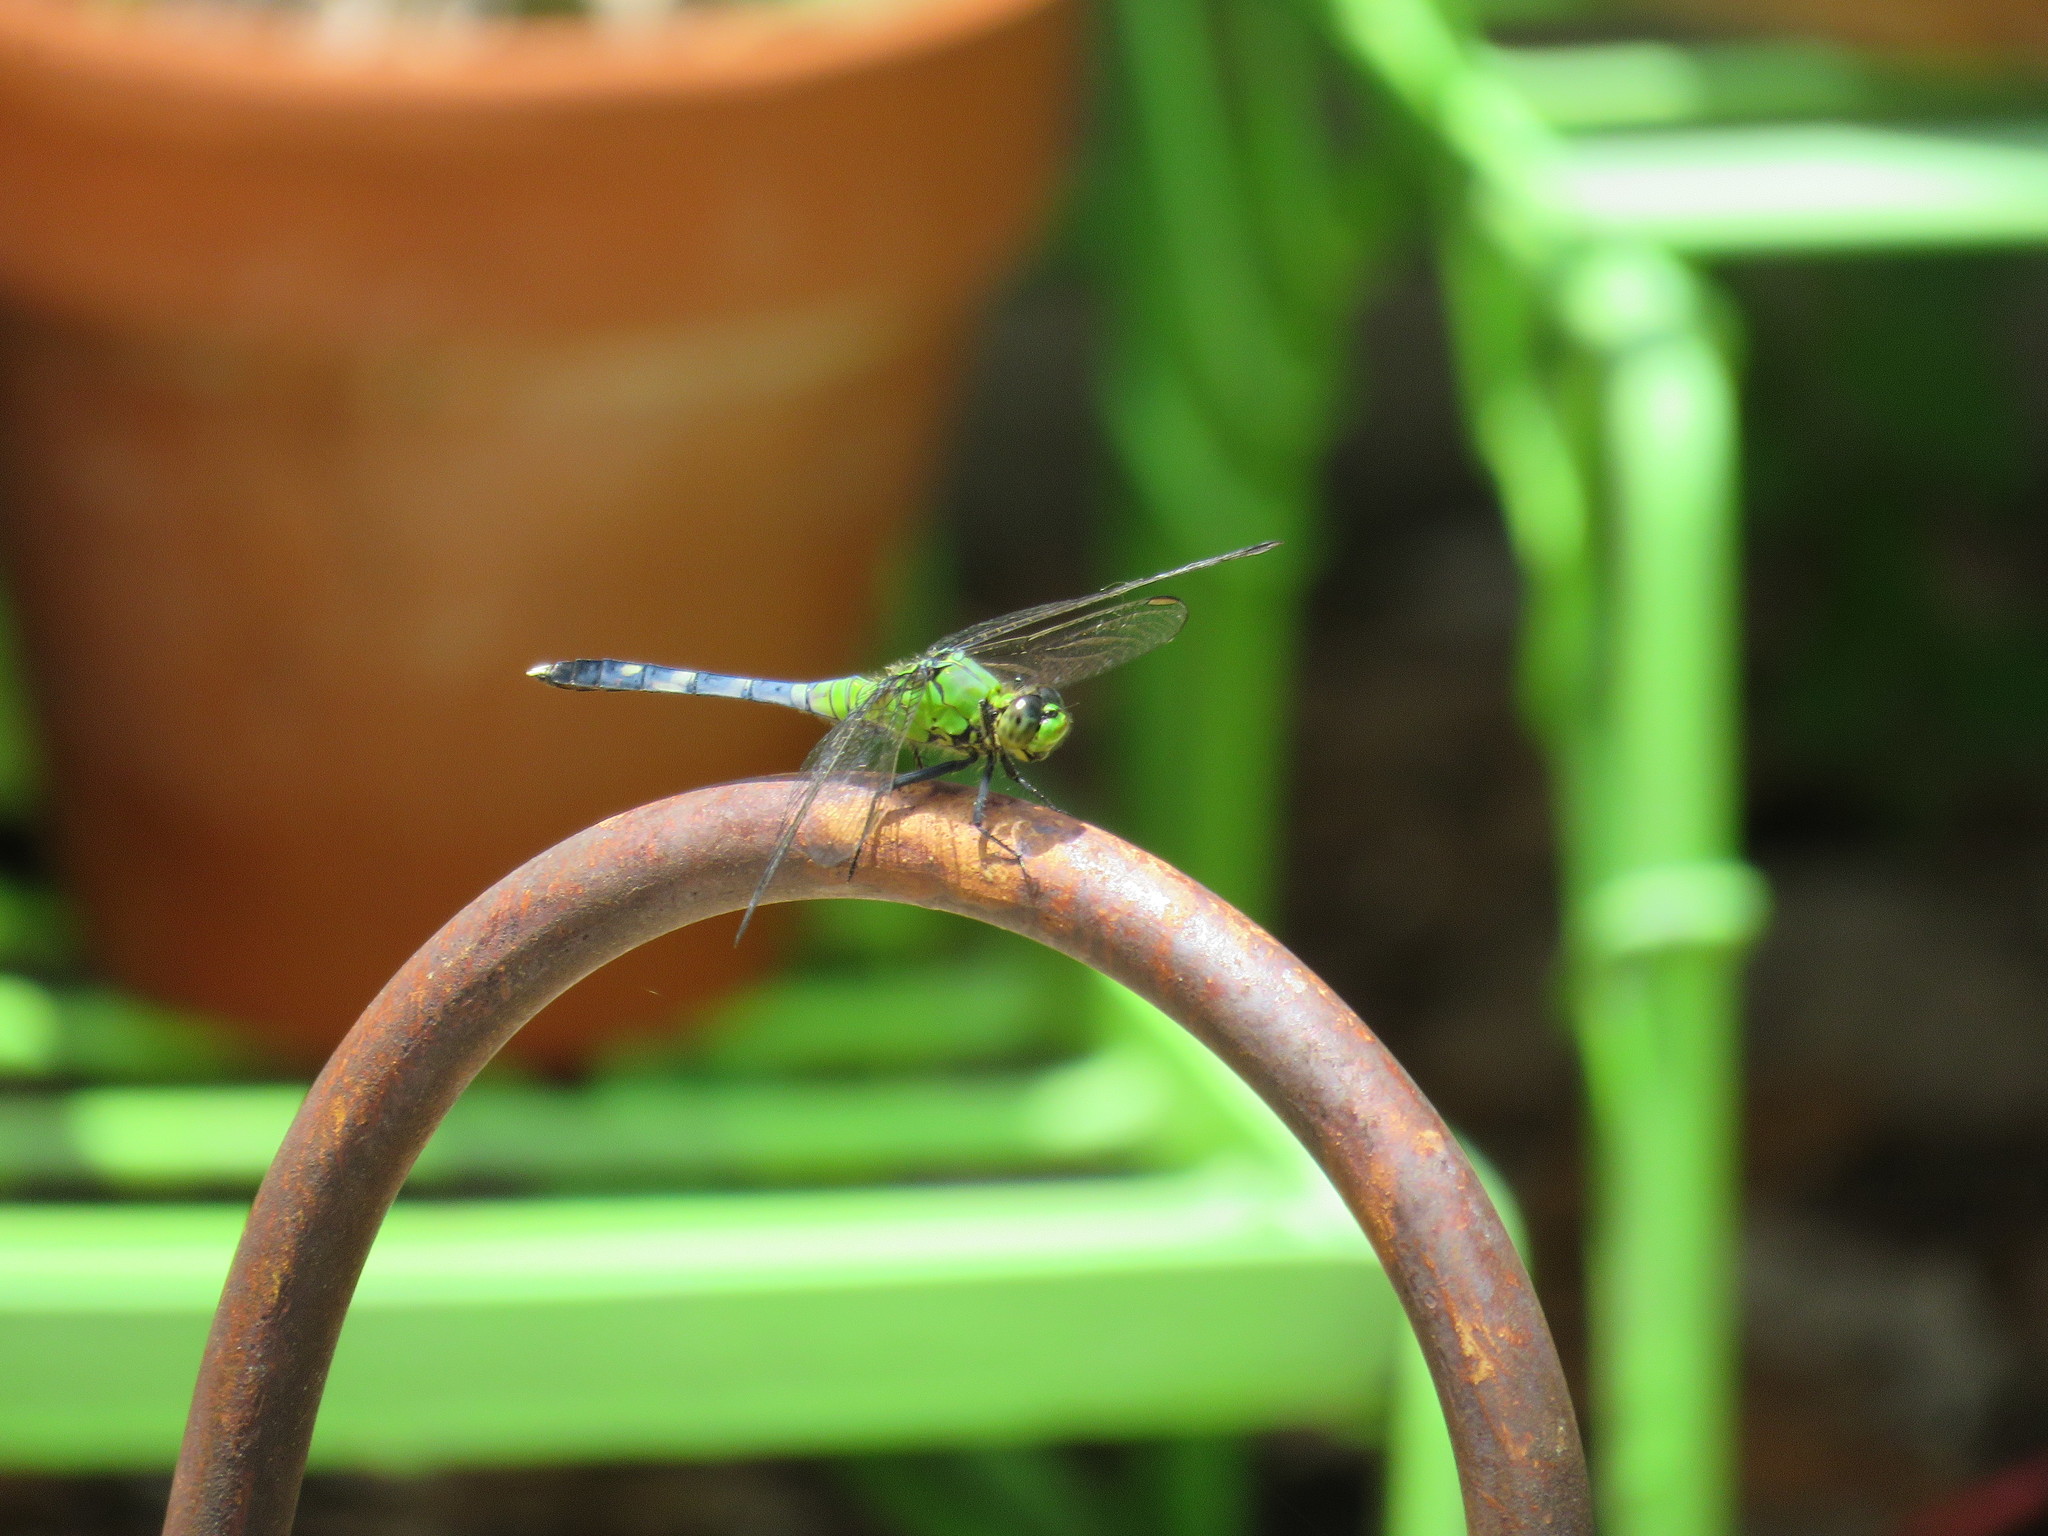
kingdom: Animalia
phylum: Arthropoda
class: Insecta
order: Odonata
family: Libellulidae
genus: Erythemis
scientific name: Erythemis simplicicollis
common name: Eastern pondhawk
